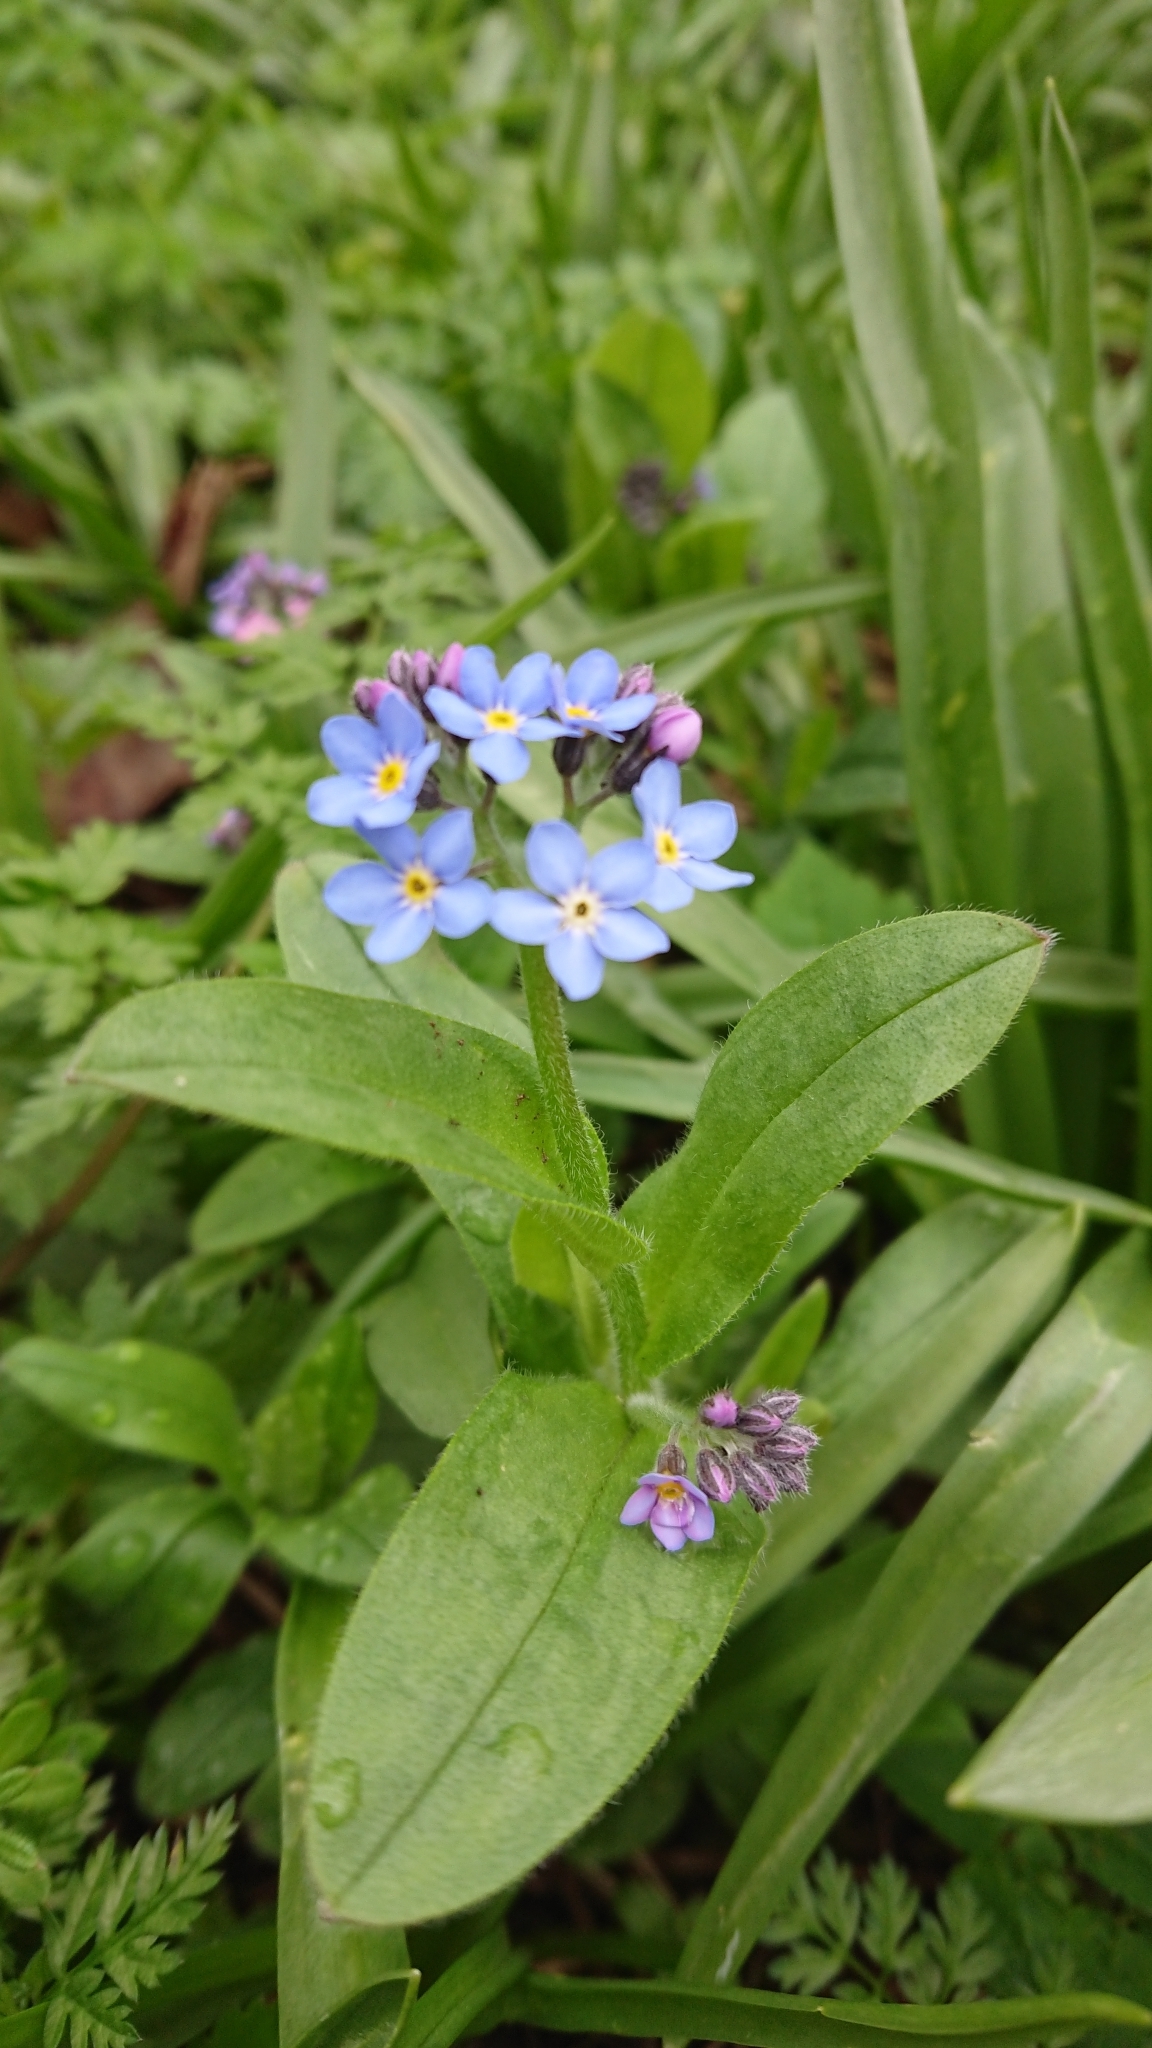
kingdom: Plantae
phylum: Tracheophyta
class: Magnoliopsida
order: Boraginales
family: Boraginaceae
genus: Myosotis
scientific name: Myosotis sylvatica
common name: Wood forget-me-not
